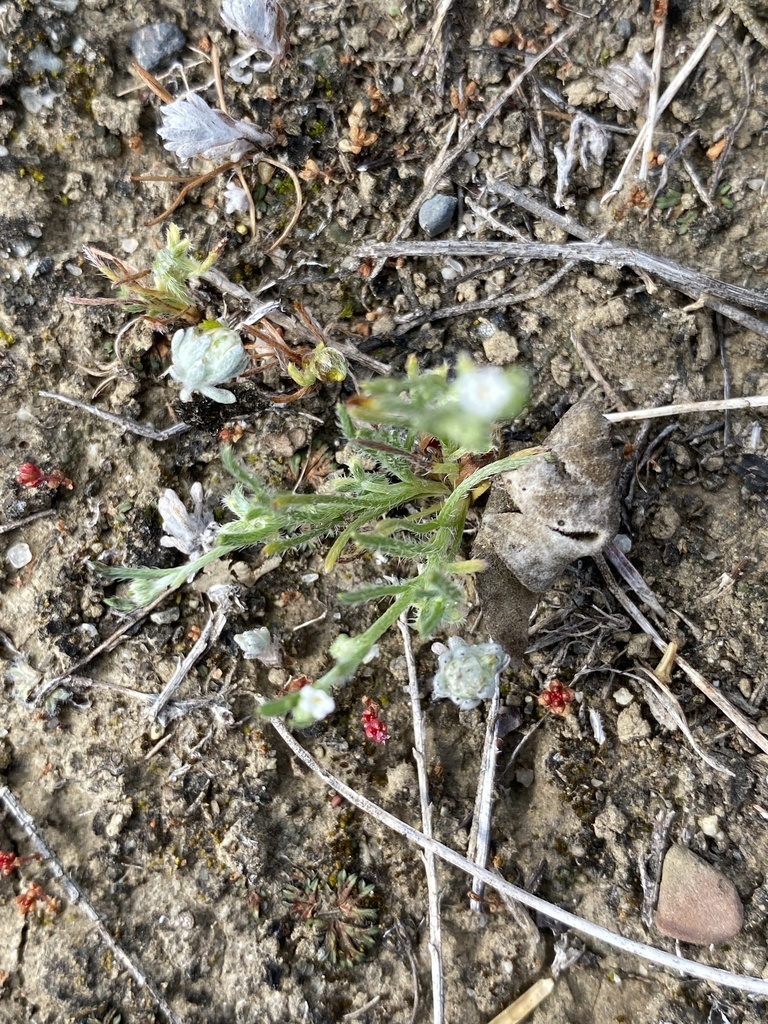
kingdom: Plantae
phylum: Tracheophyta
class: Magnoliopsida
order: Boraginales
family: Boraginaceae
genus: Pectocarya
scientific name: Pectocarya linearis
